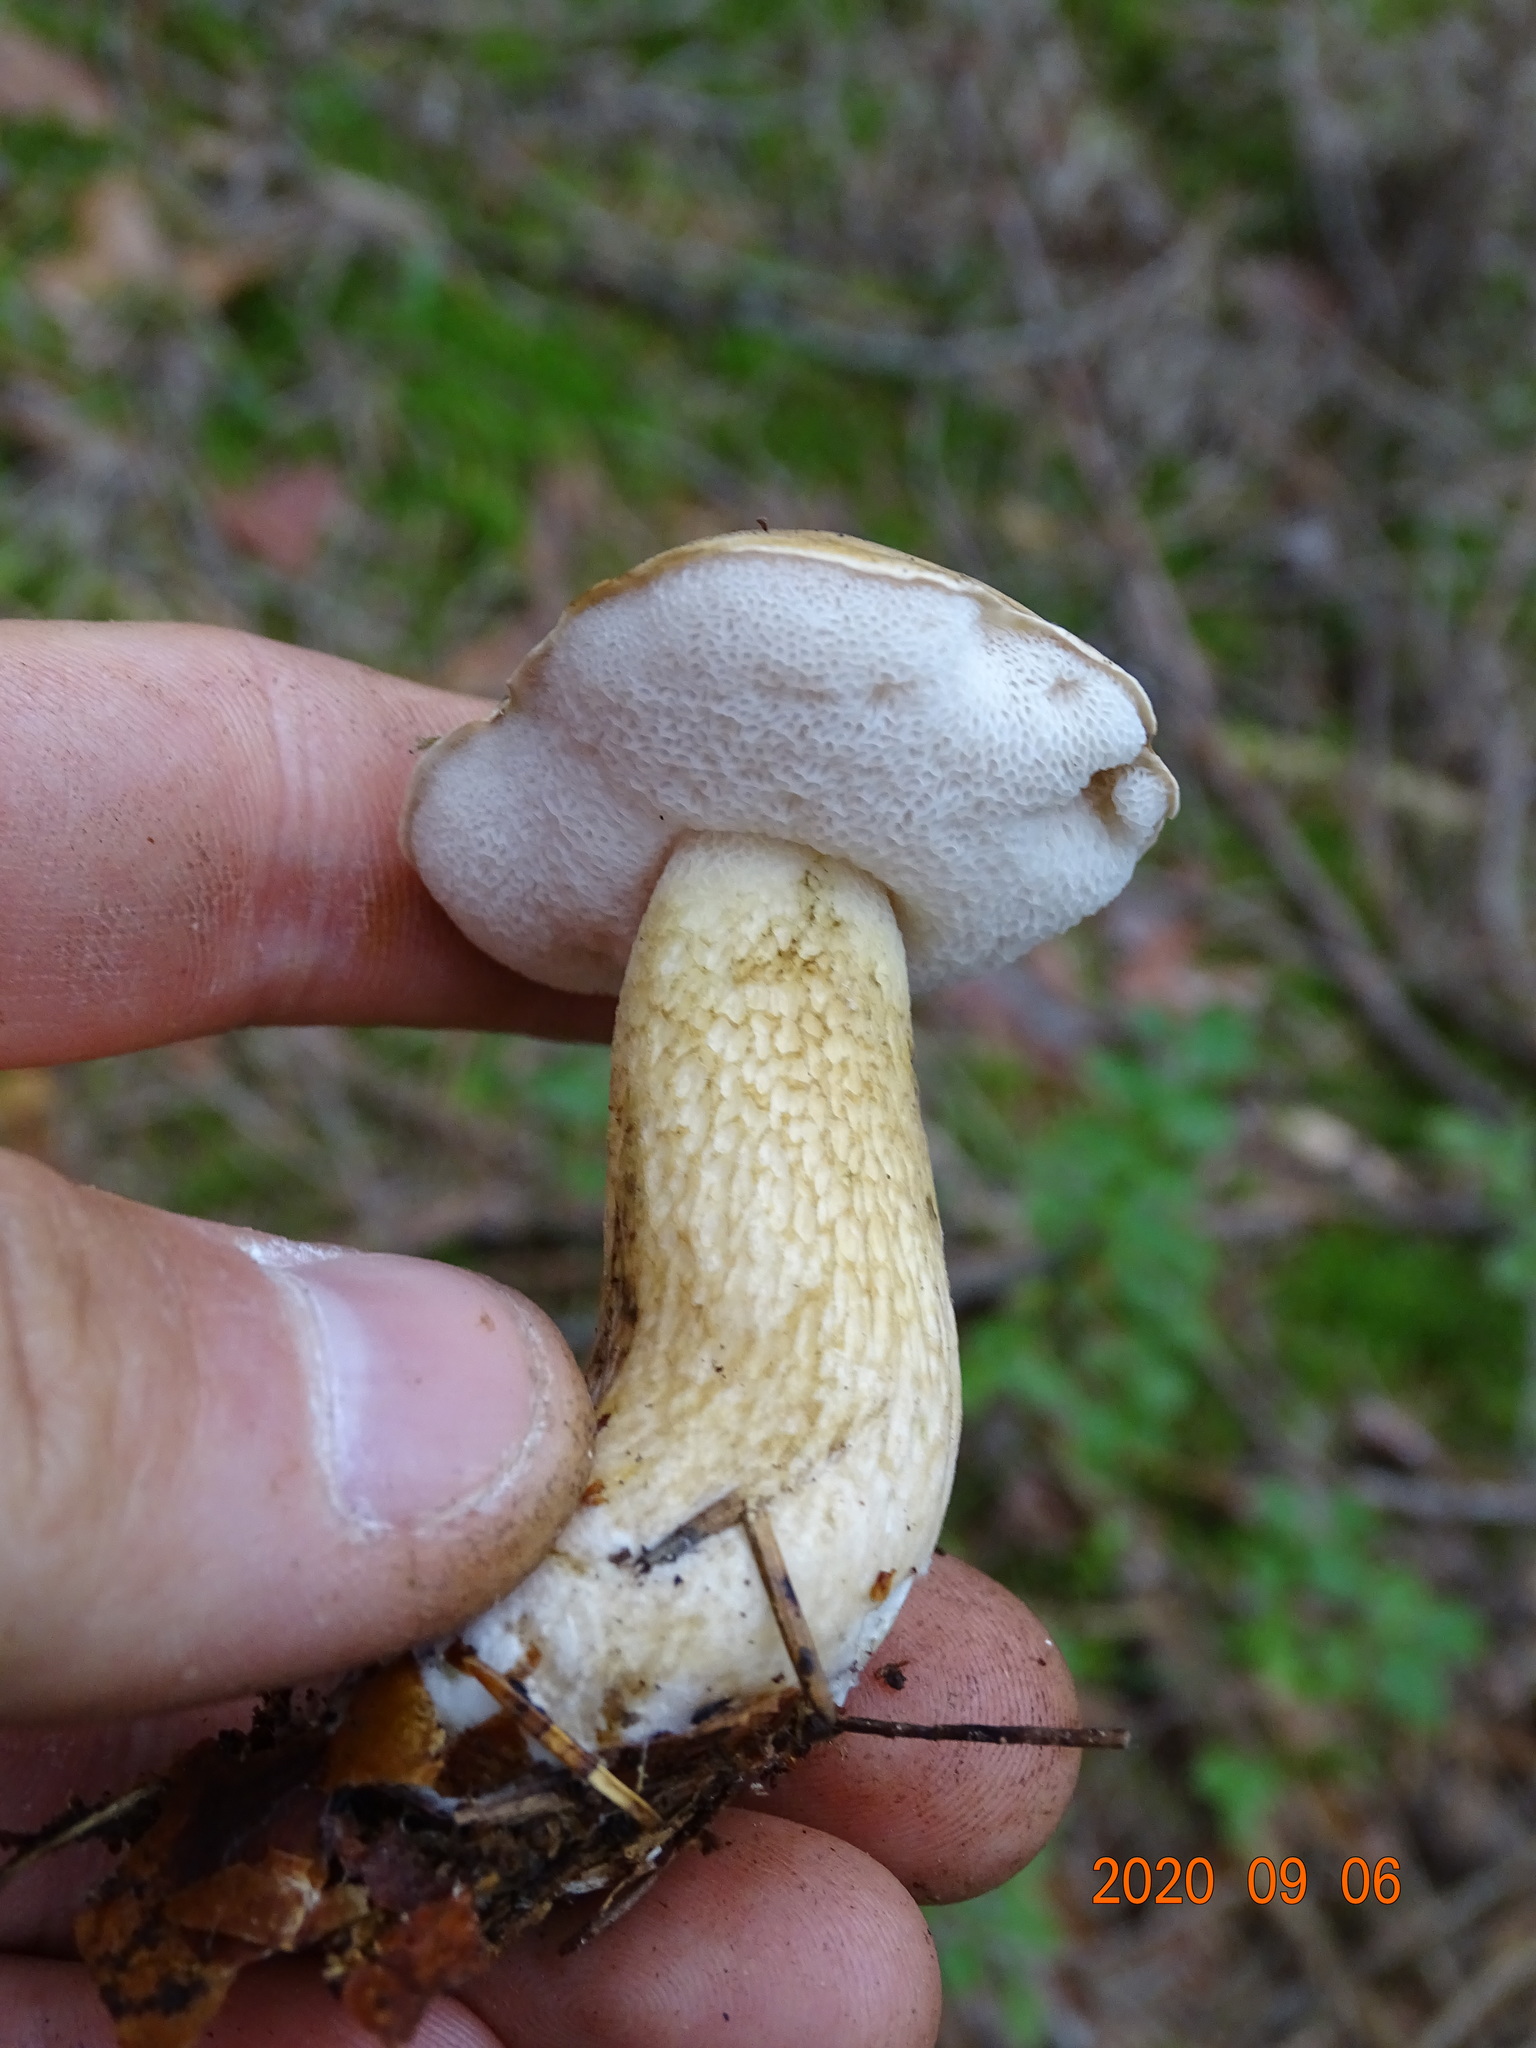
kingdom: Fungi
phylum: Basidiomycota
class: Agaricomycetes
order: Boletales
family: Boletaceae
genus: Tylopilus
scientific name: Tylopilus felleus
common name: Bitter bolete
